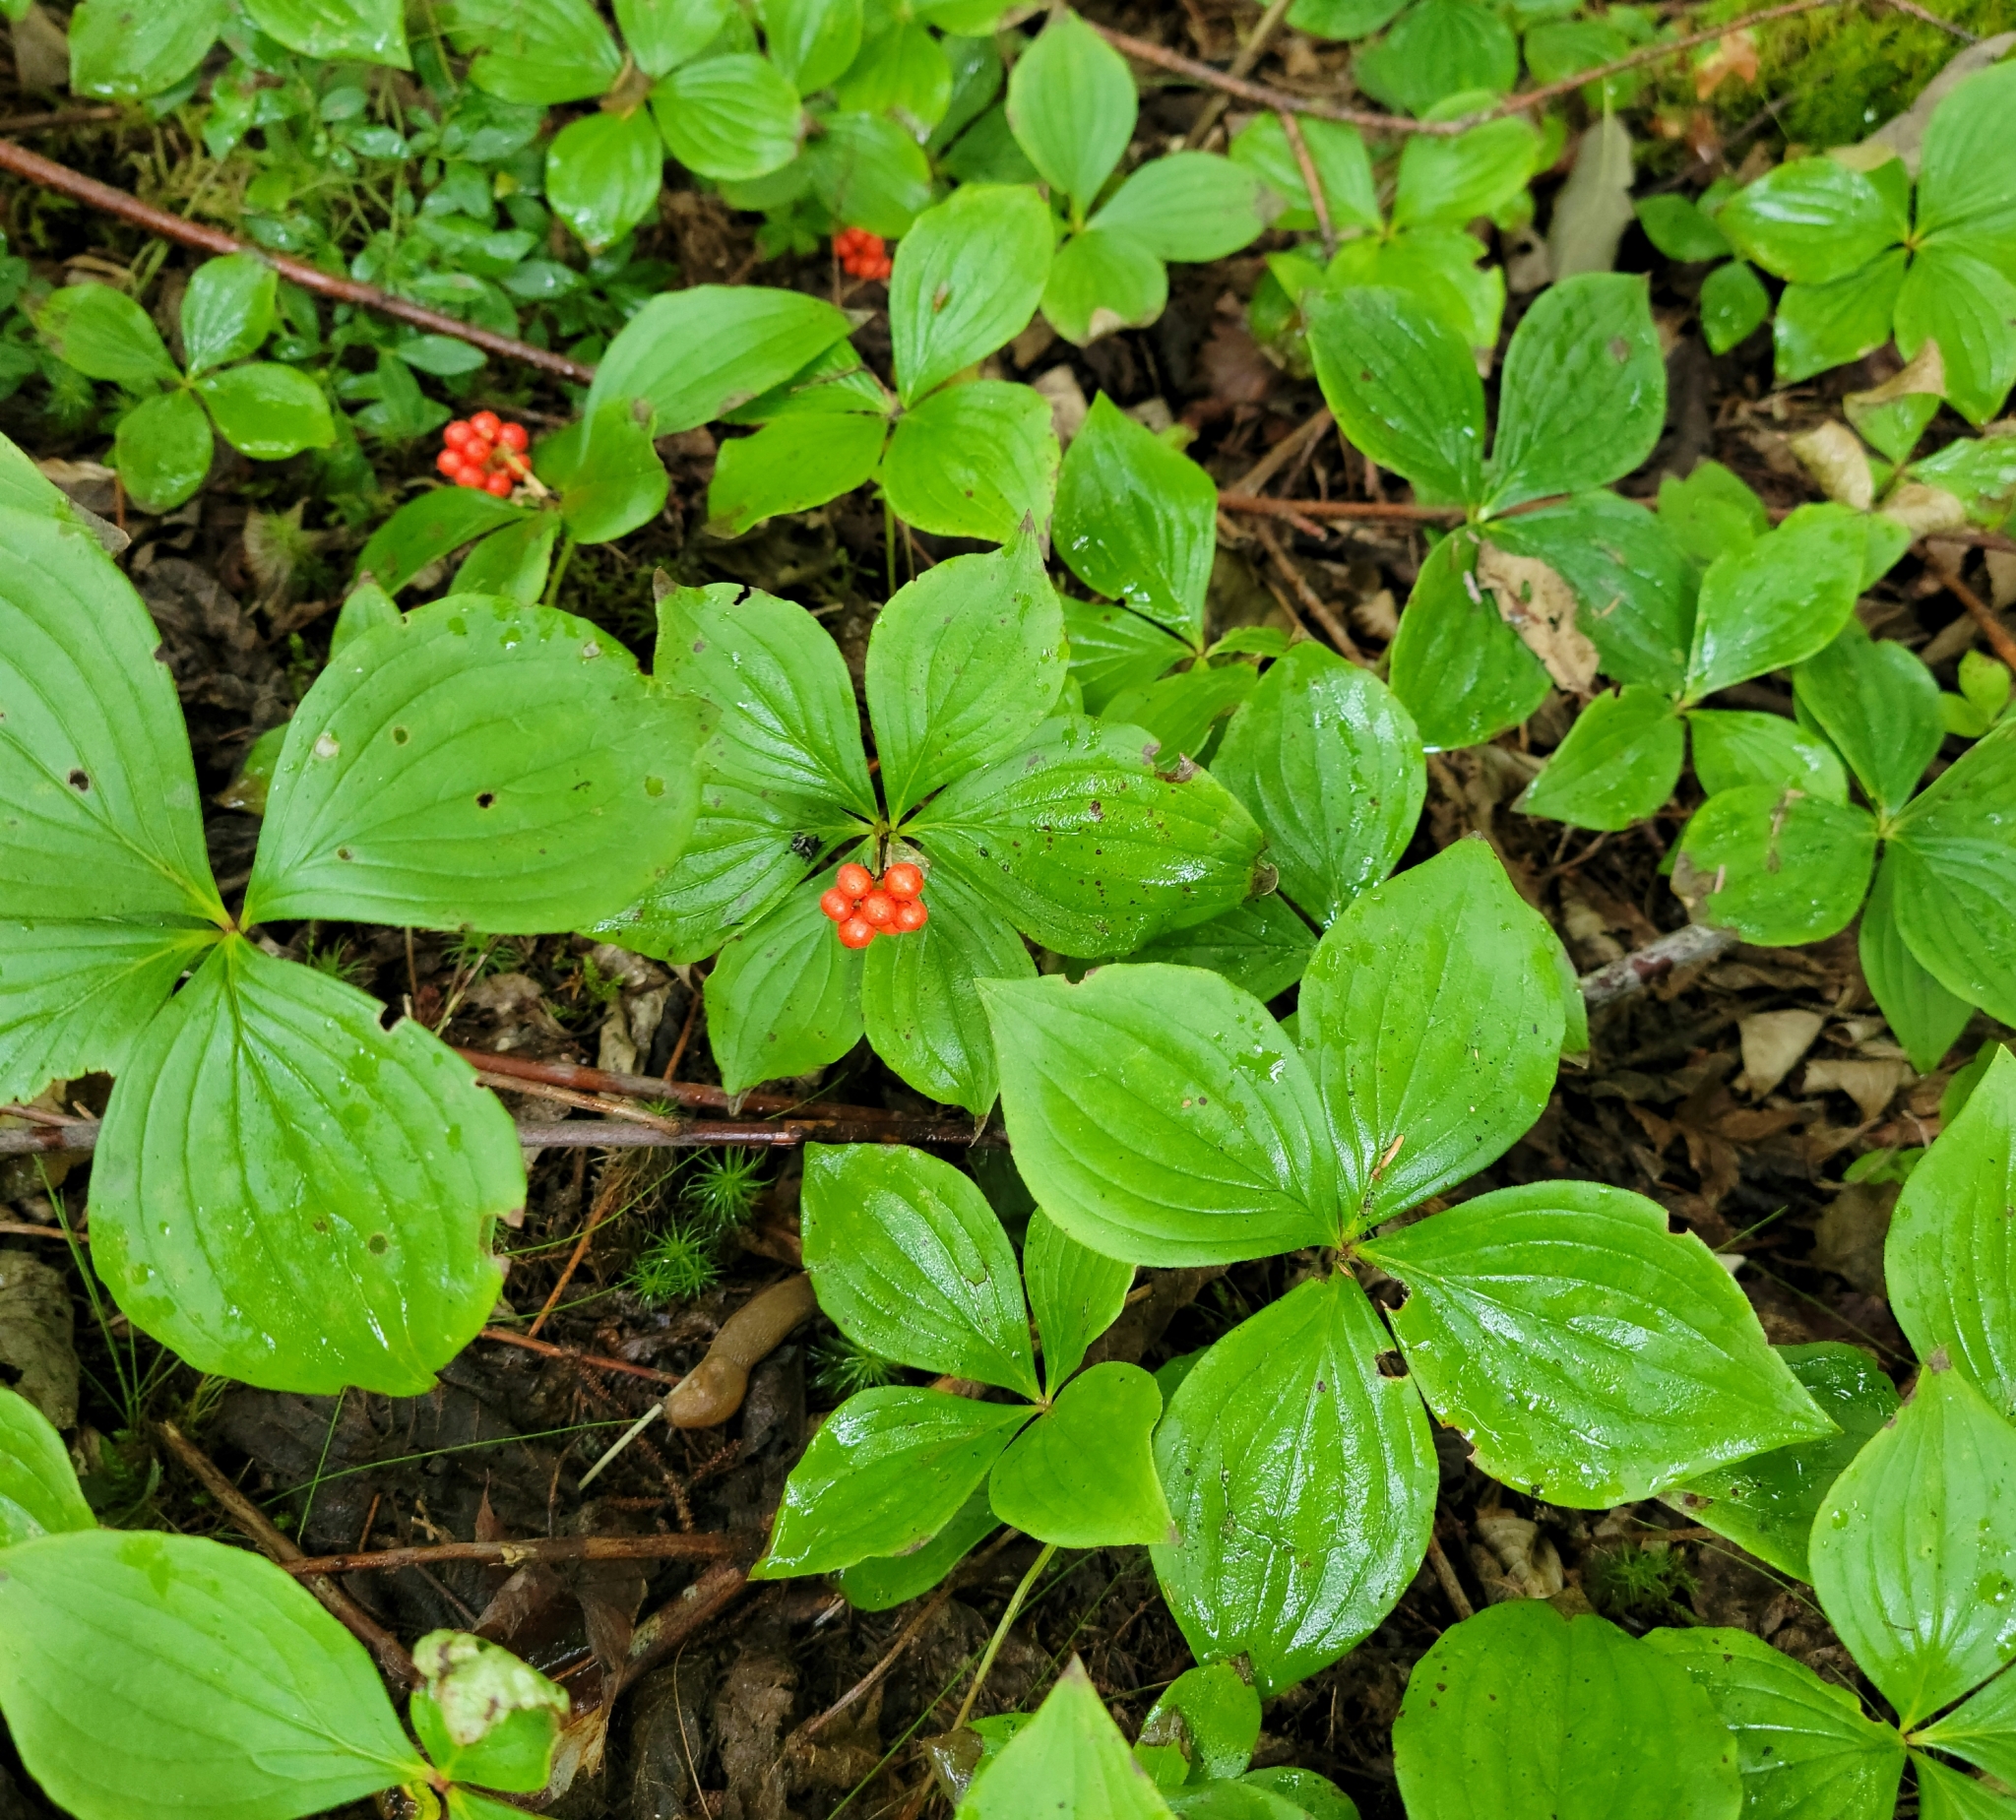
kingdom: Plantae
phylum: Tracheophyta
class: Magnoliopsida
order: Cornales
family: Cornaceae
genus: Cornus
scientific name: Cornus canadensis
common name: Creeping dogwood
